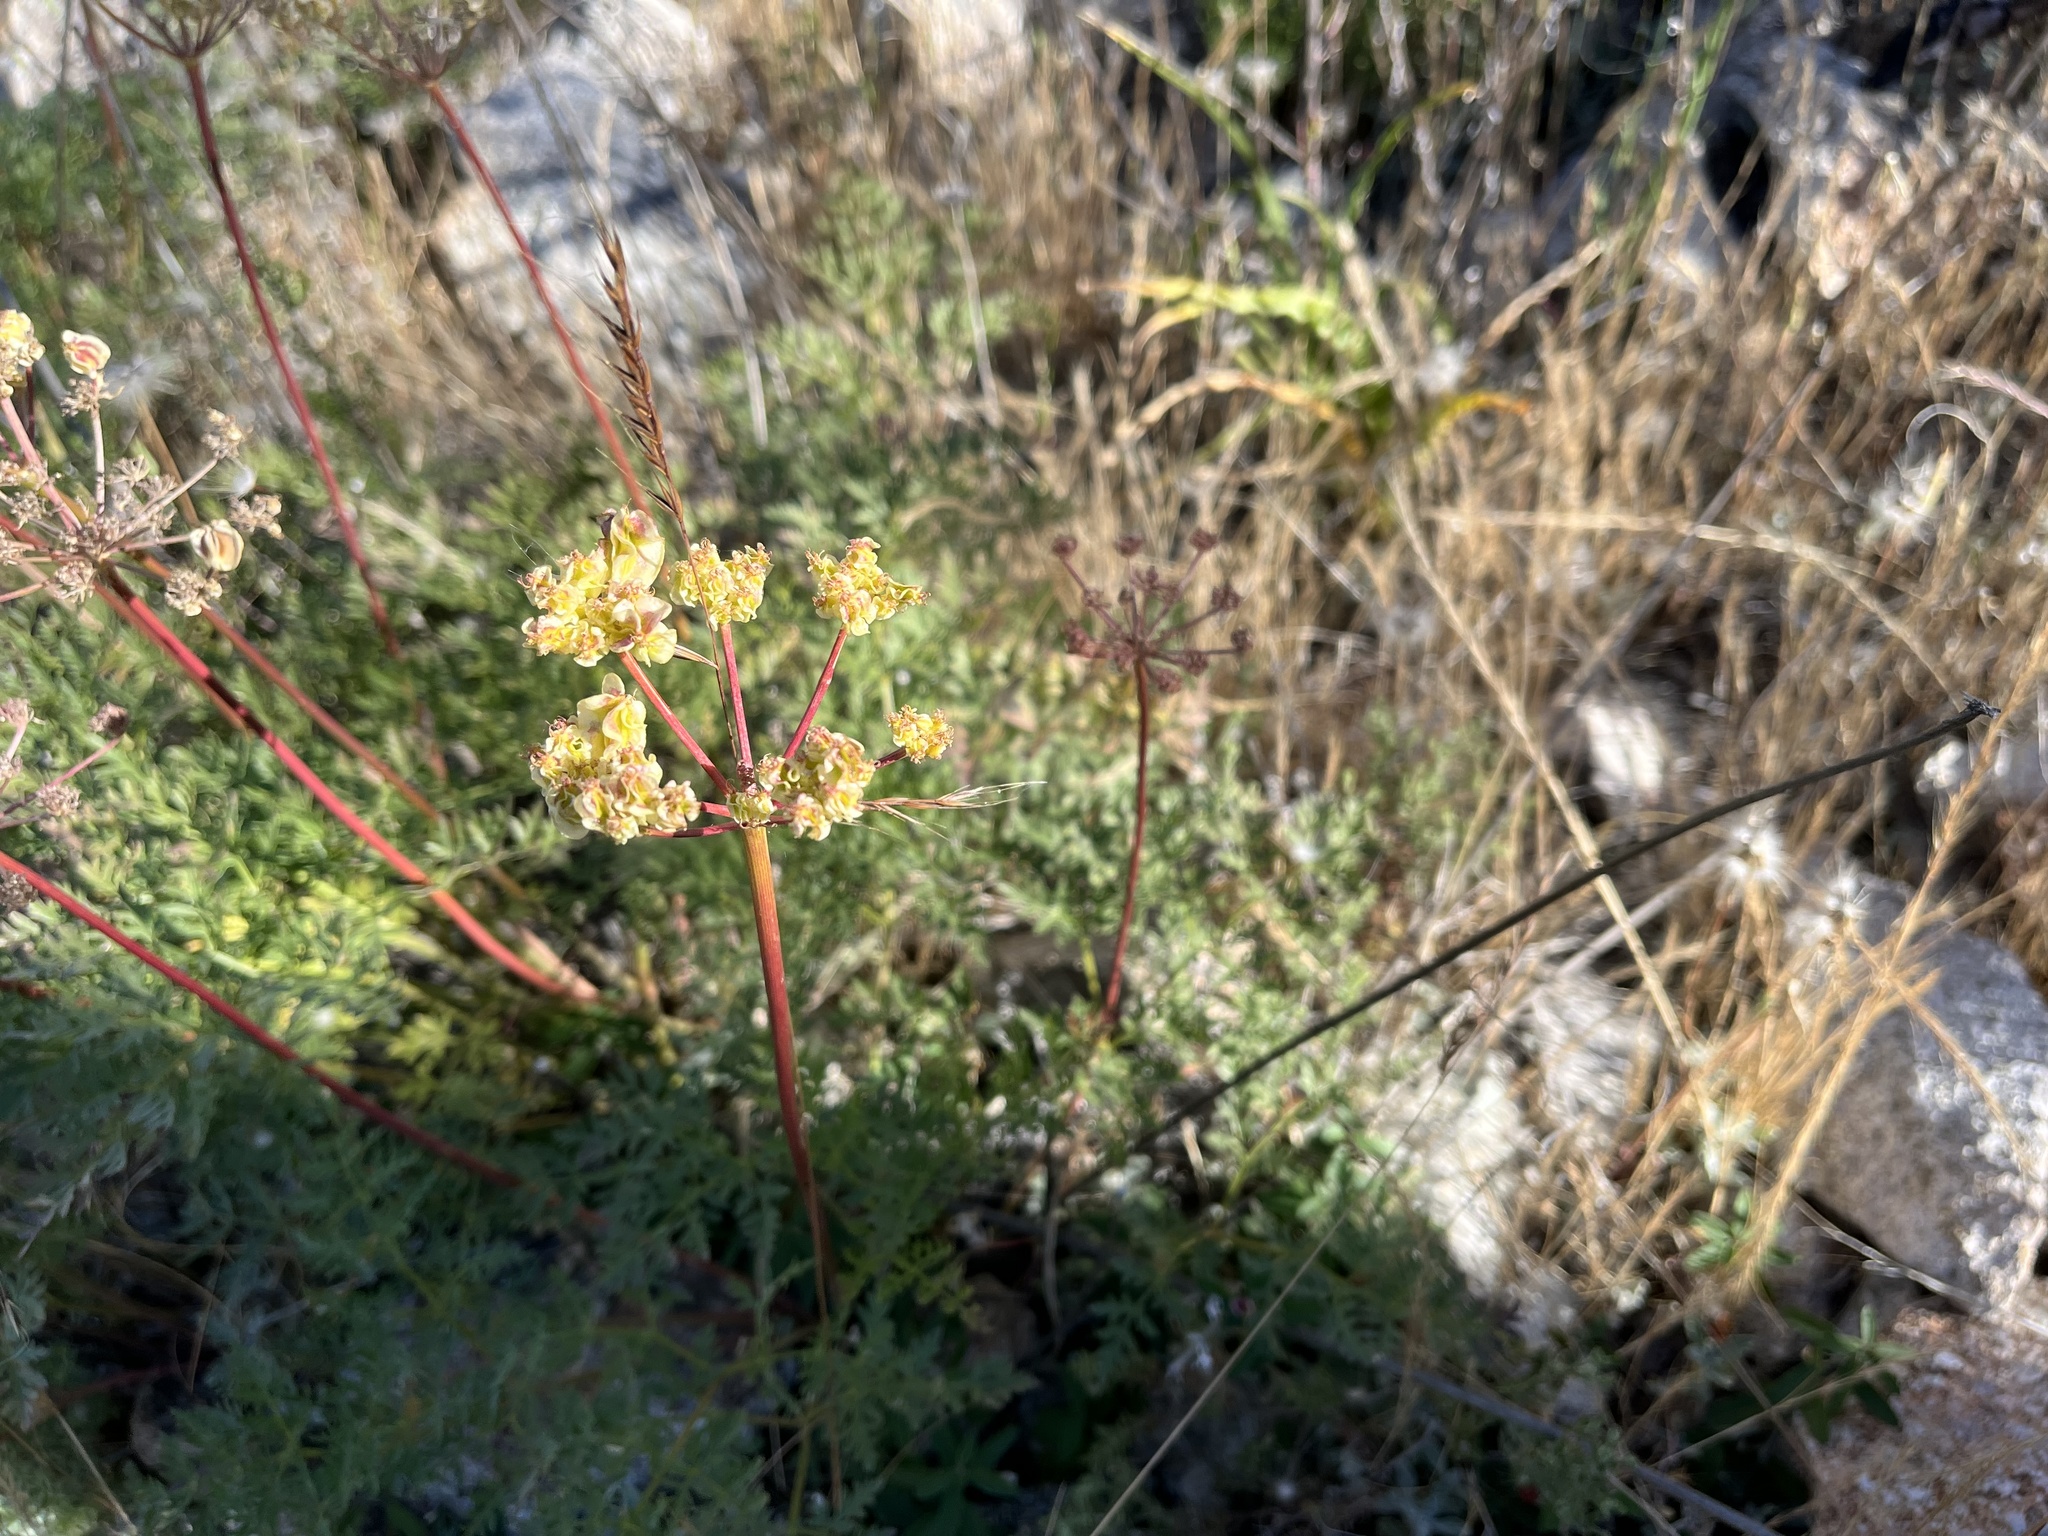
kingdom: Plantae
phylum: Tracheophyta
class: Magnoliopsida
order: Apiales
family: Apiaceae
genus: Pteryxia
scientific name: Pteryxia terebinthina
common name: Turpentine wavewing
